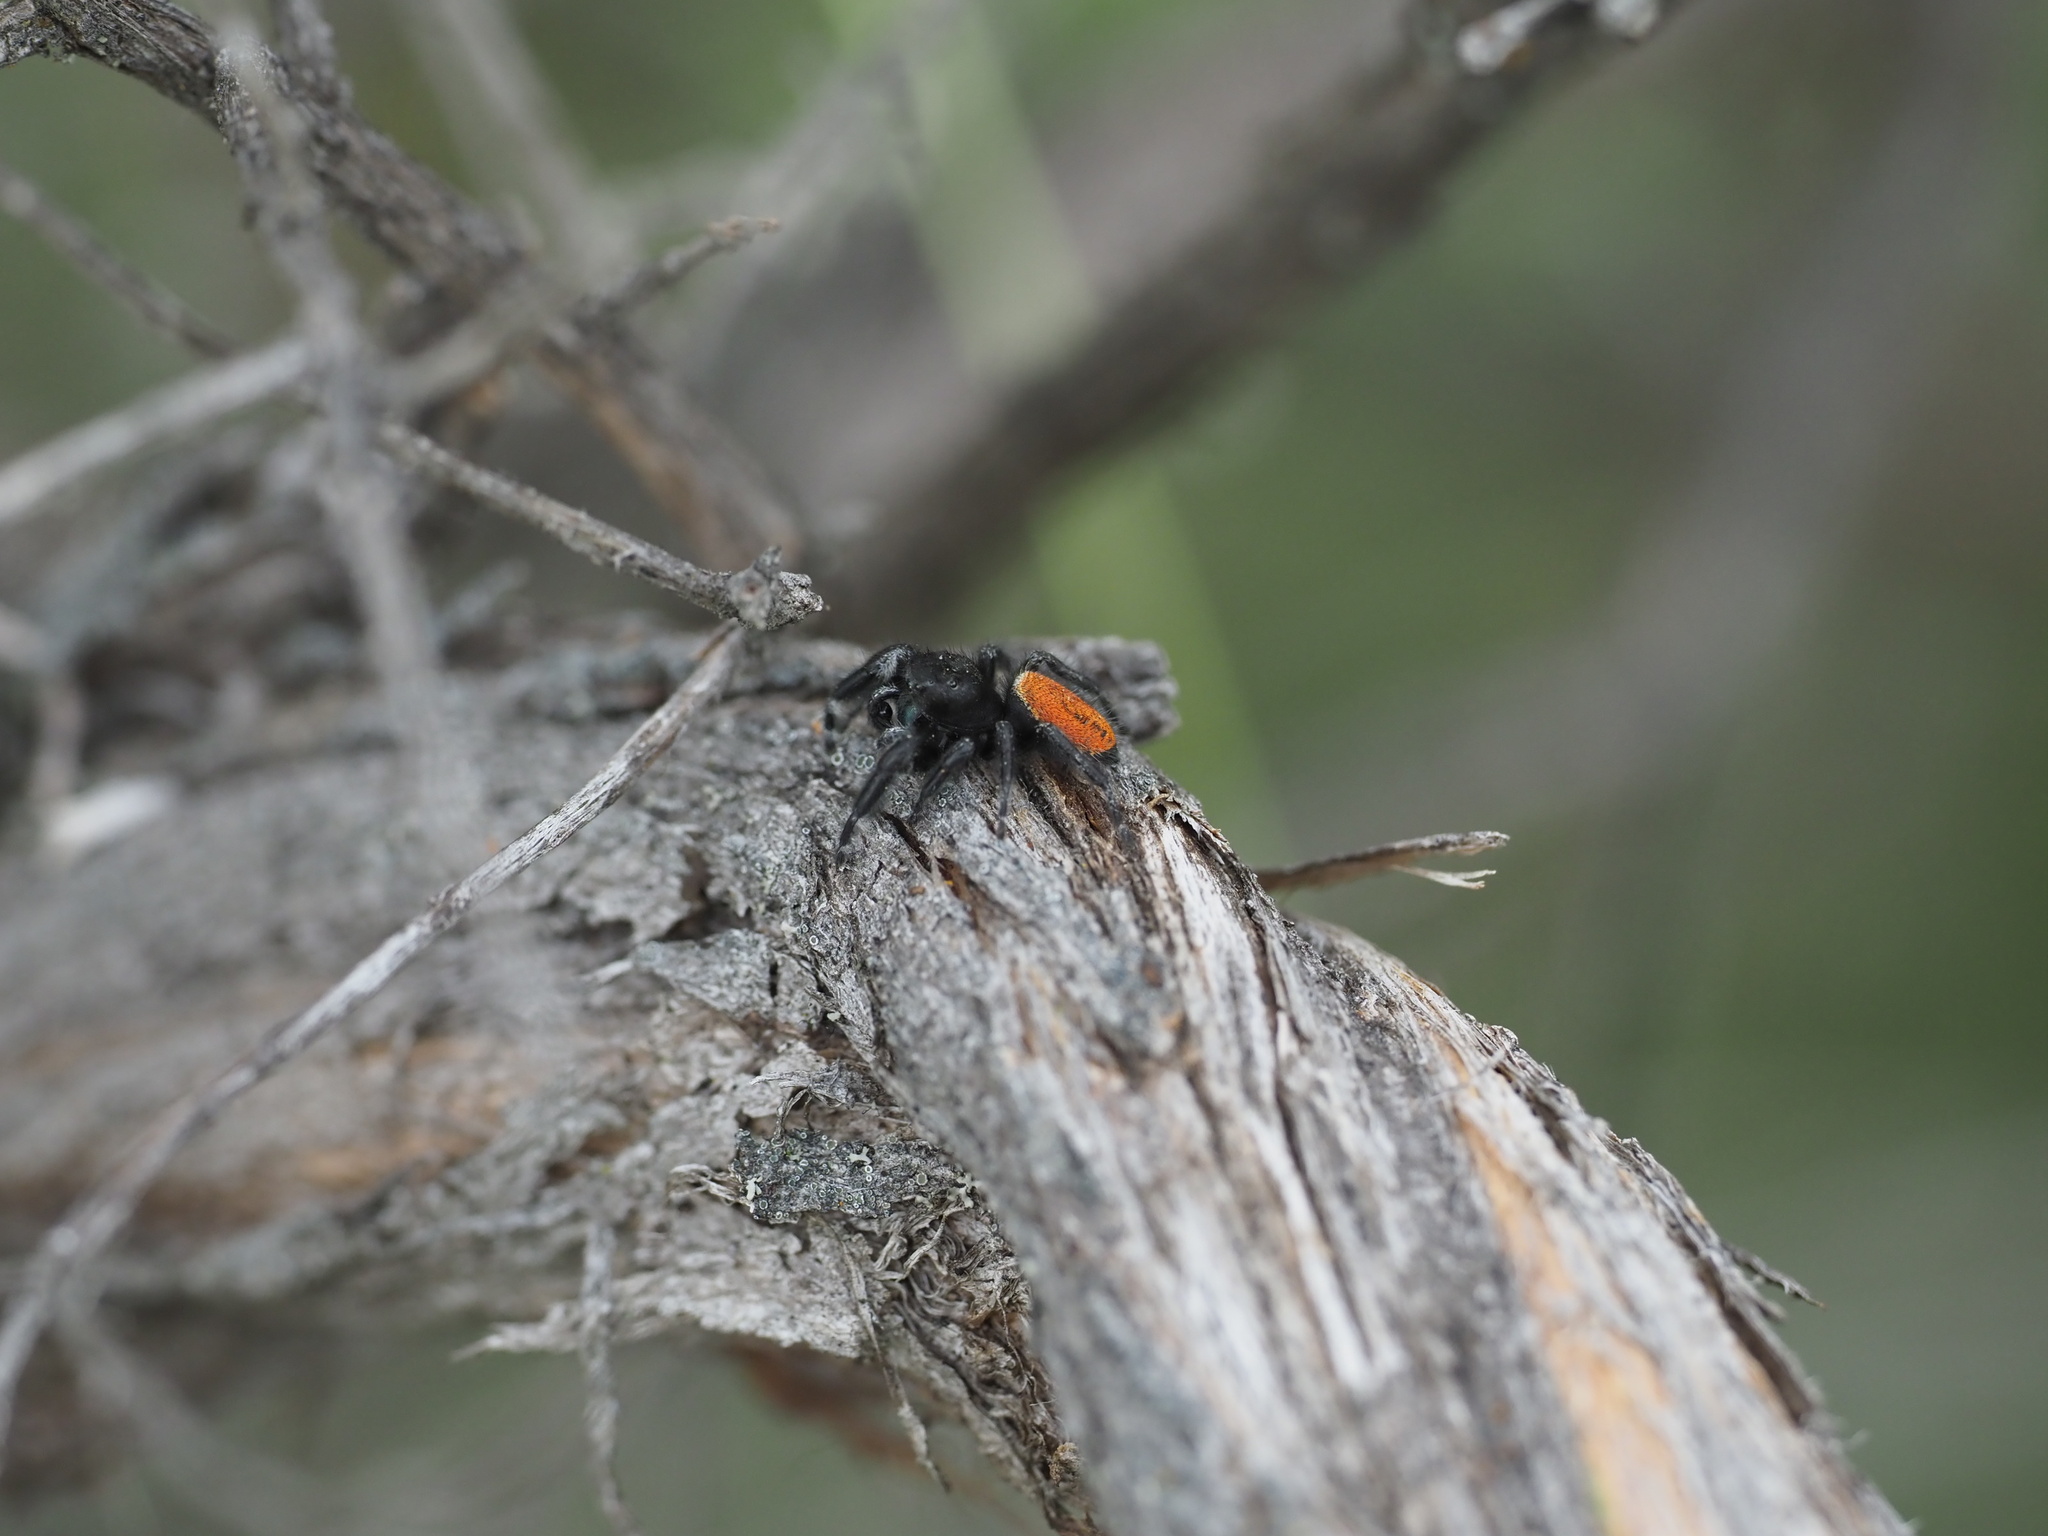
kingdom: Animalia
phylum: Arthropoda
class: Arachnida
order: Araneae
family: Salticidae
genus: Phidippus
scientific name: Phidippus johnsoni
